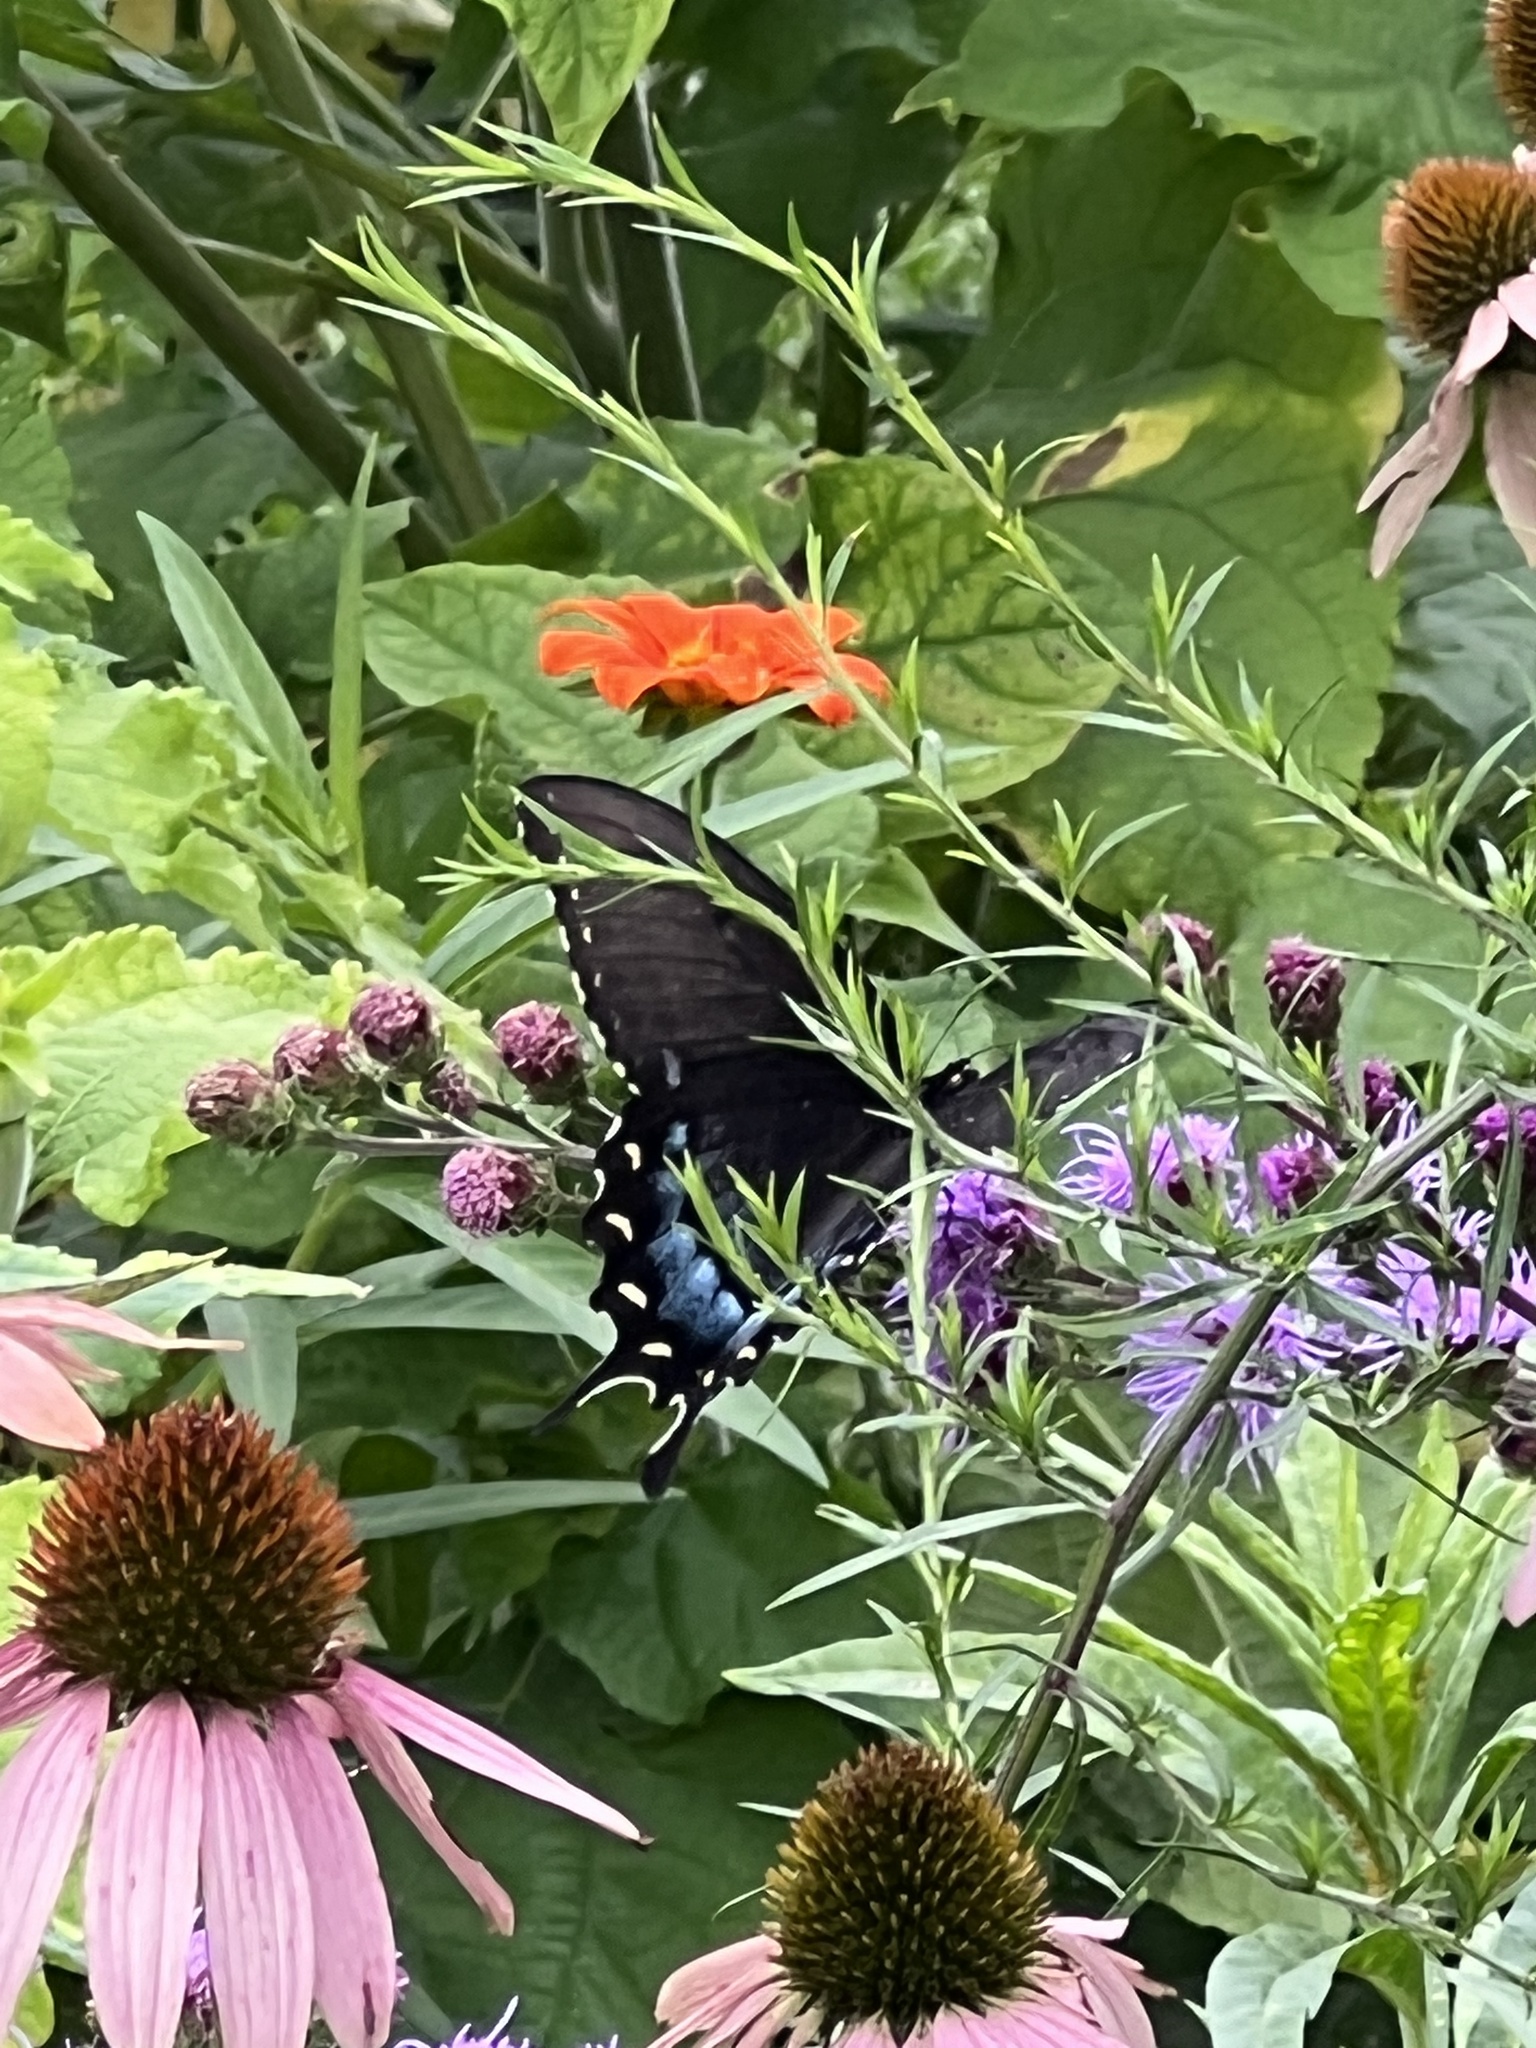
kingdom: Animalia
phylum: Arthropoda
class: Insecta
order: Lepidoptera
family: Papilionidae
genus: Papilio
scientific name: Papilio glaucus
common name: Tiger swallowtail
